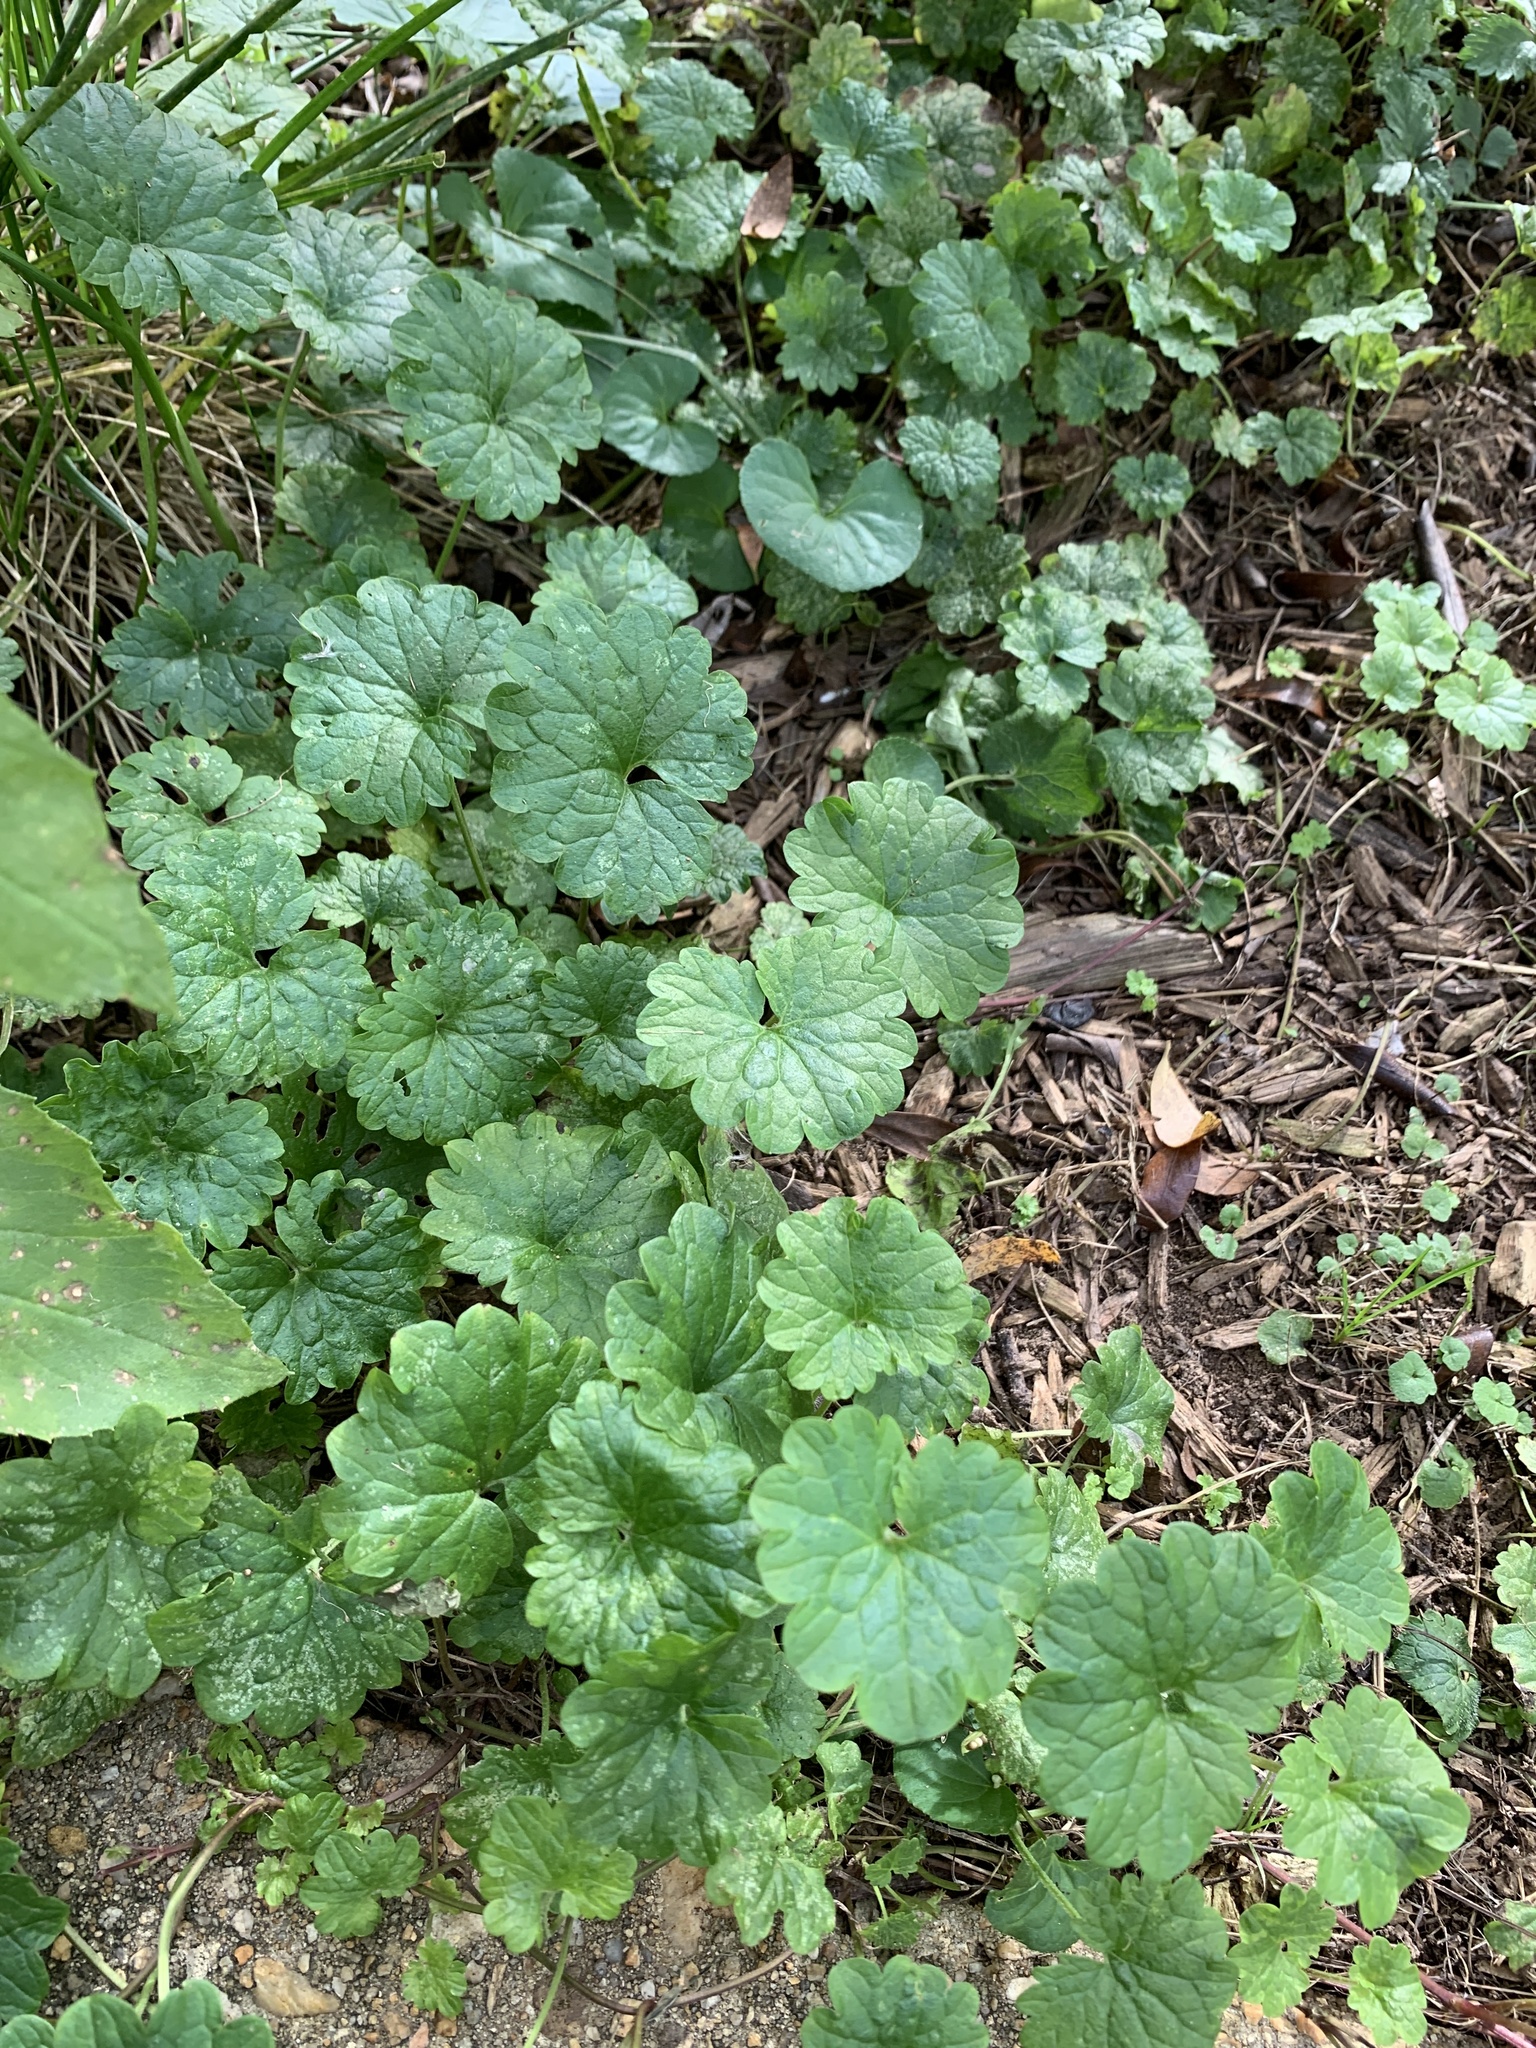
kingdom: Plantae
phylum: Tracheophyta
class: Magnoliopsida
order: Lamiales
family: Lamiaceae
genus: Glechoma
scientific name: Glechoma hederacea
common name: Ground ivy
